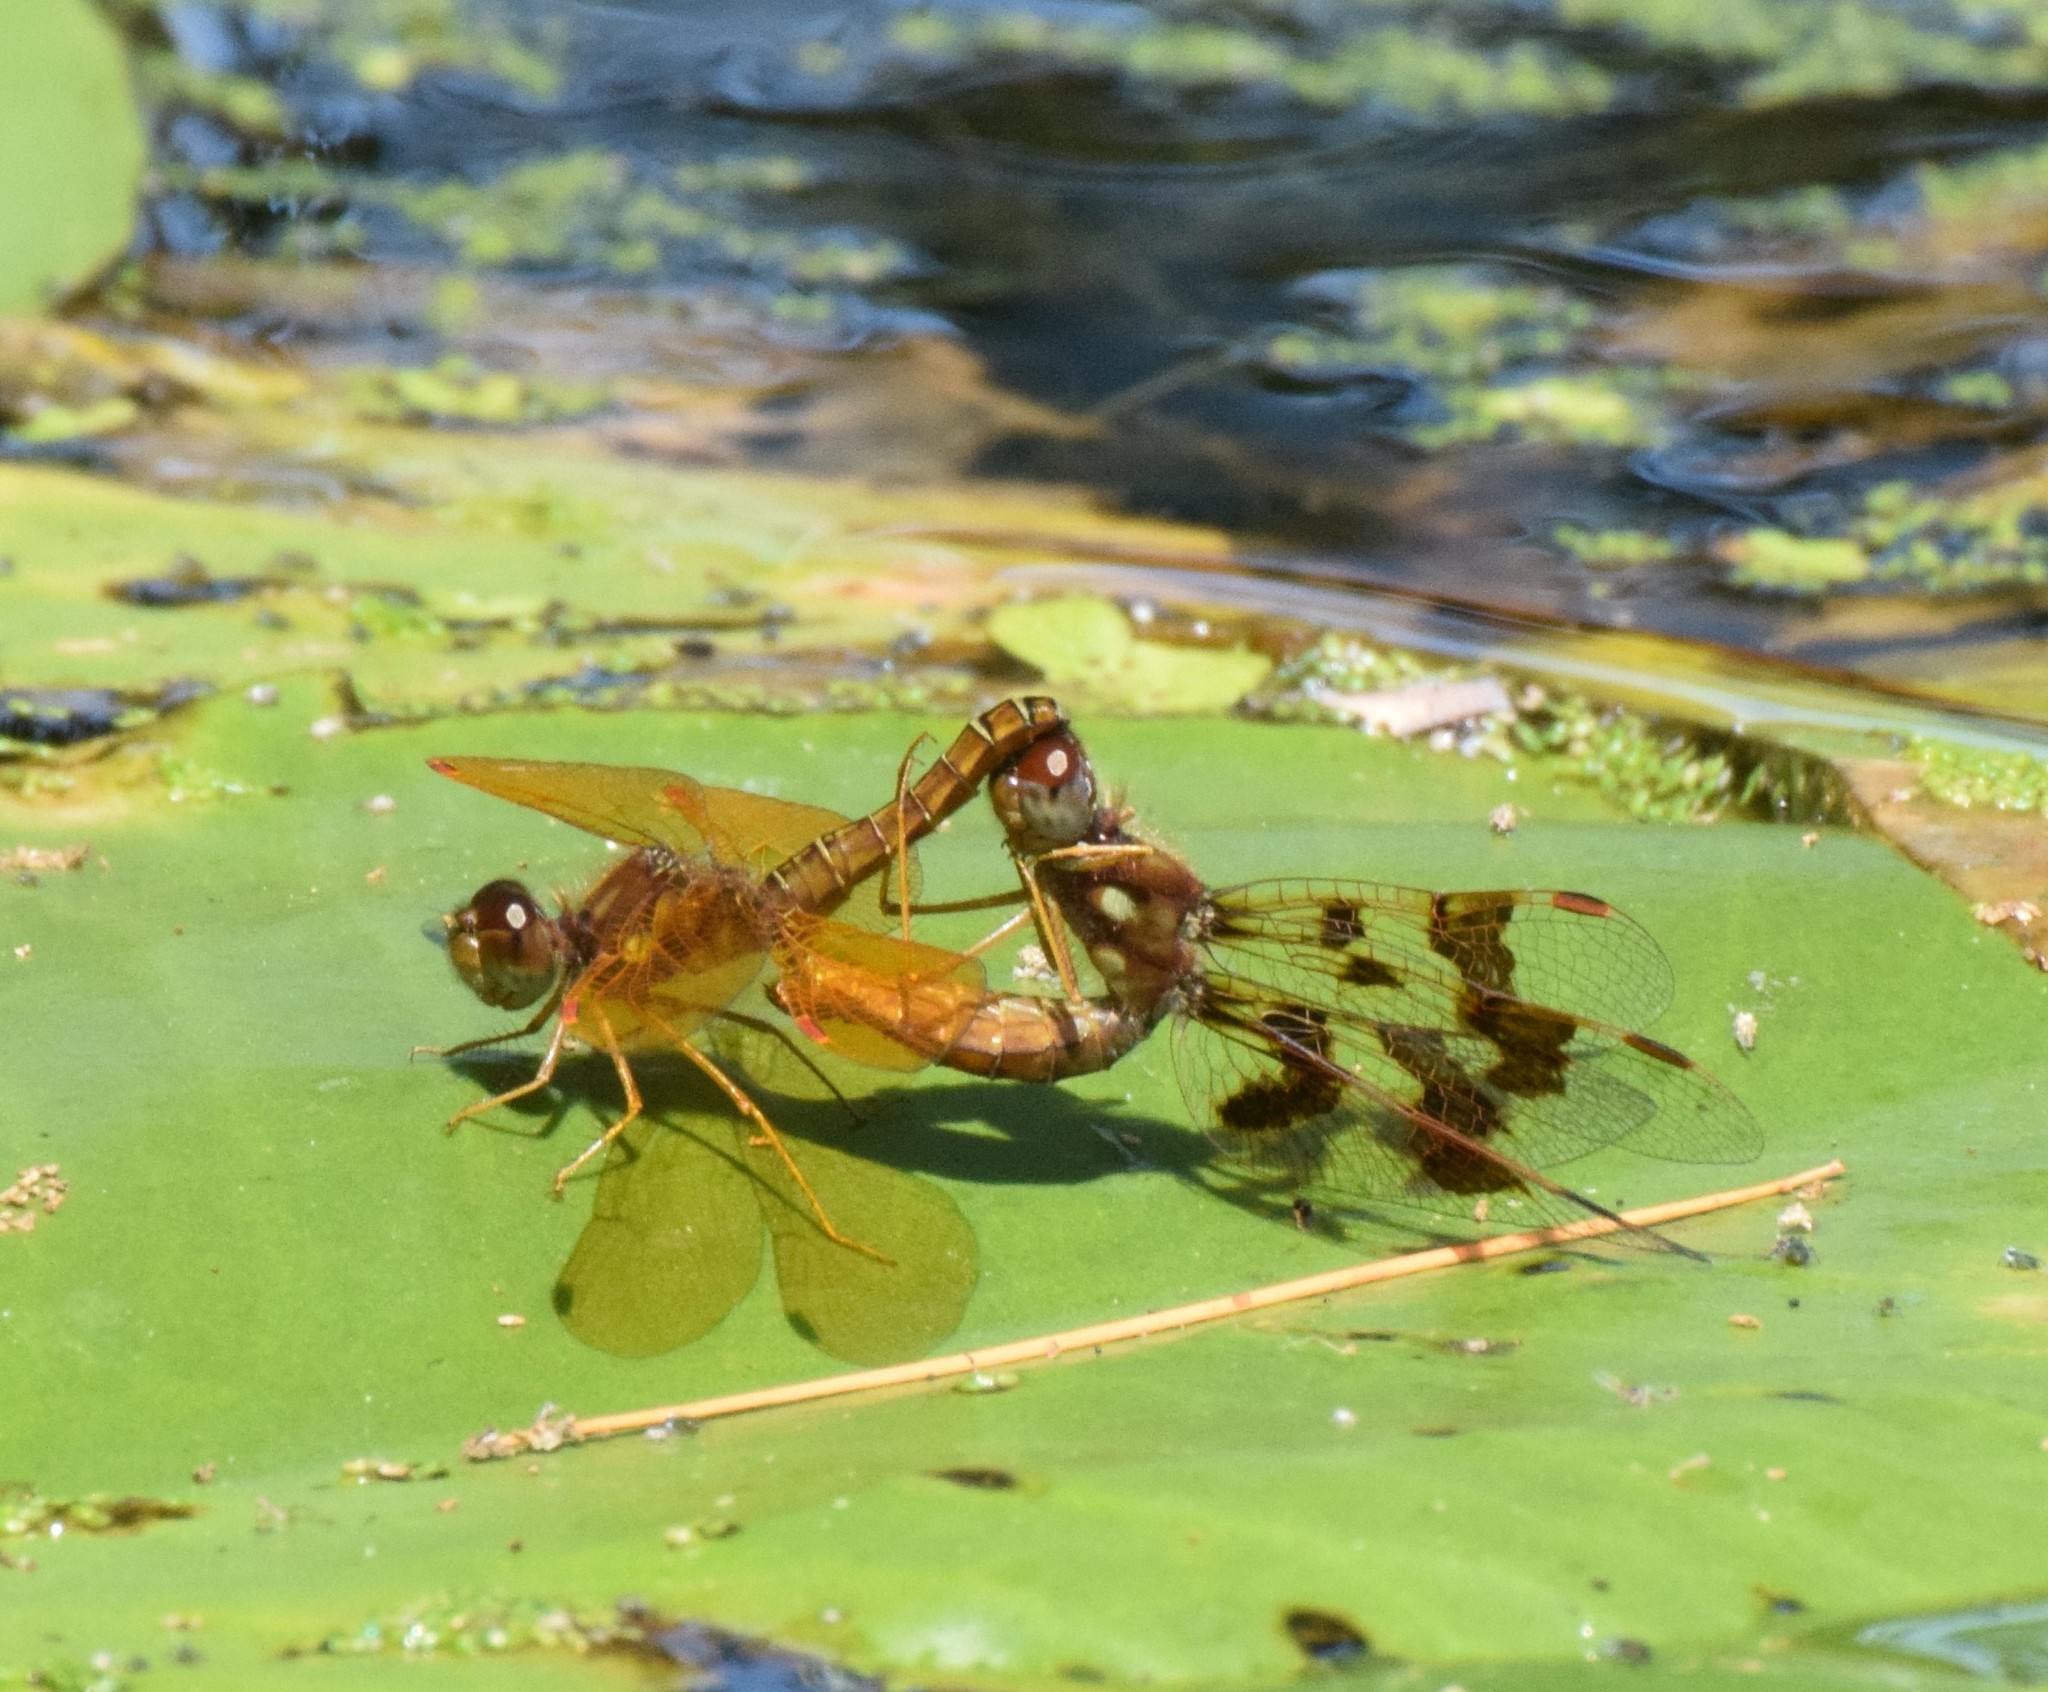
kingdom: Animalia
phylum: Arthropoda
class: Insecta
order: Odonata
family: Libellulidae
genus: Perithemis
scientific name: Perithemis tenera
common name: Eastern amberwing
